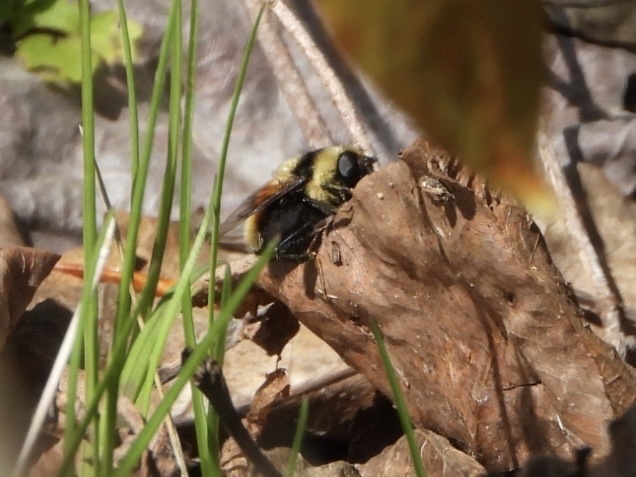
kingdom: Animalia
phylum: Arthropoda
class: Insecta
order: Diptera
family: Syrphidae
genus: Eristalis
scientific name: Eristalis flavipes
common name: Orange-legged drone fly
